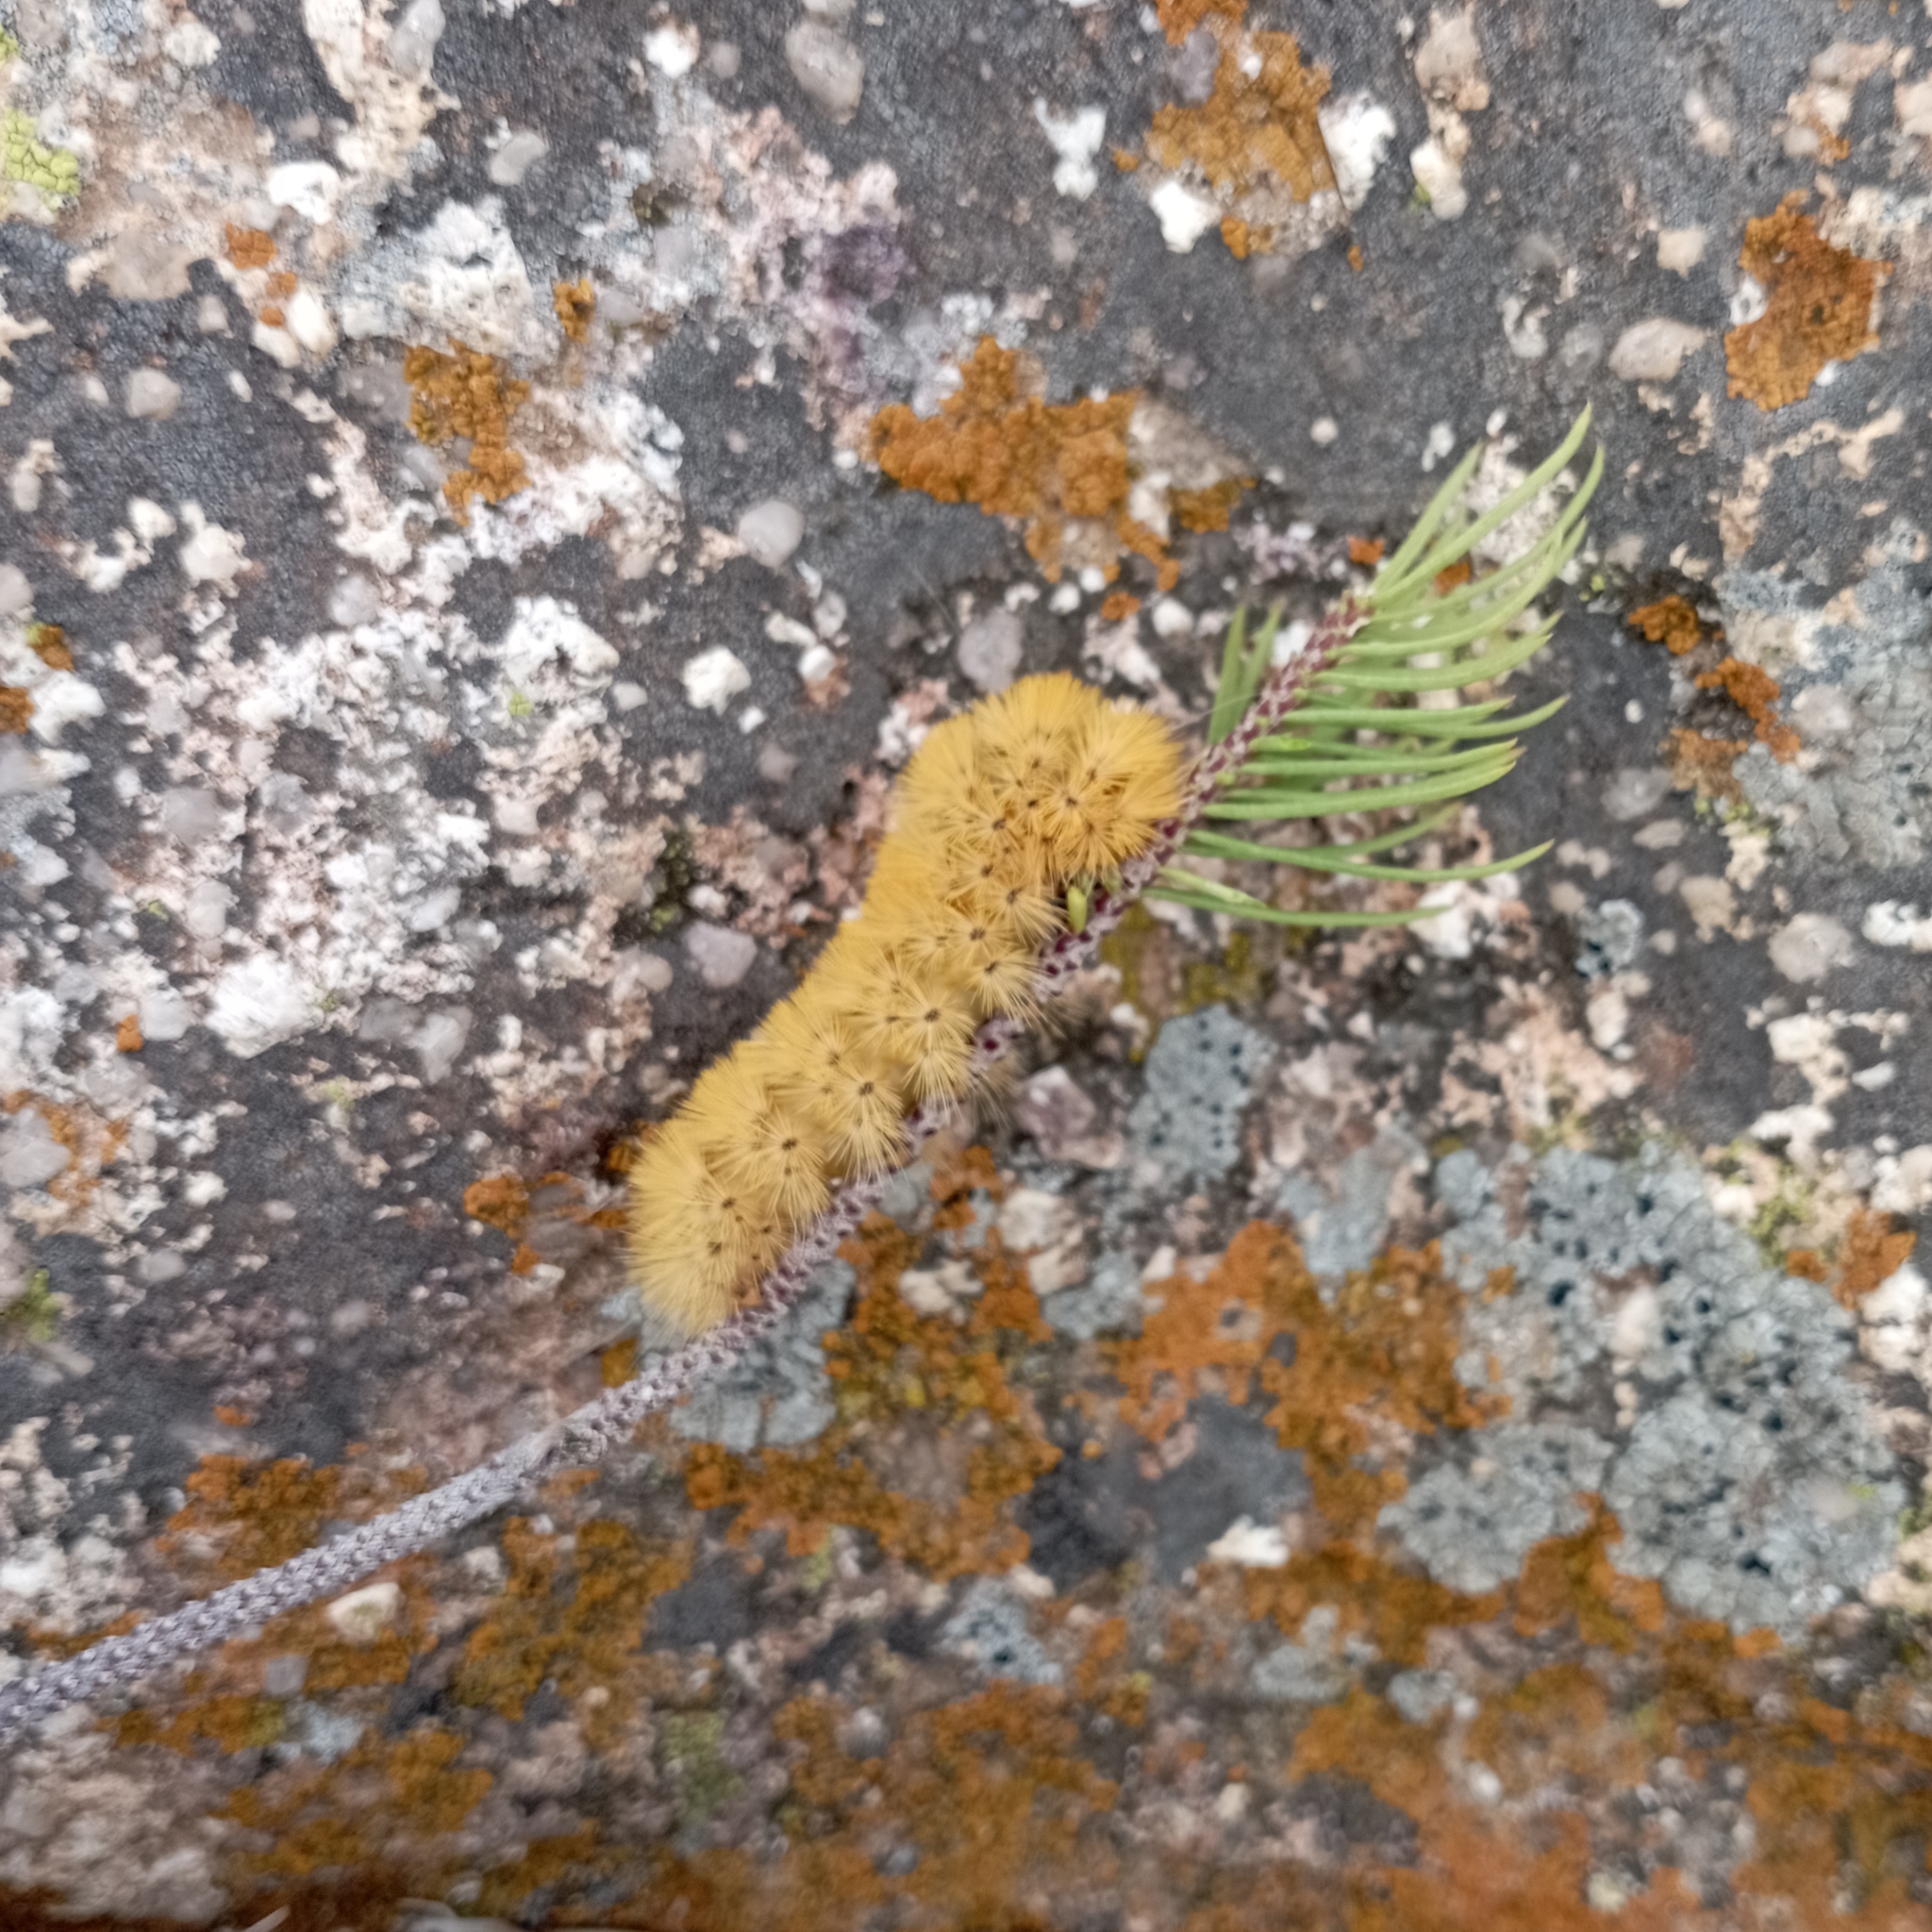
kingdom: Animalia
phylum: Arthropoda
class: Insecta
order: Lepidoptera
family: Erebidae
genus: Lerina
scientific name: Lerina incarnata
